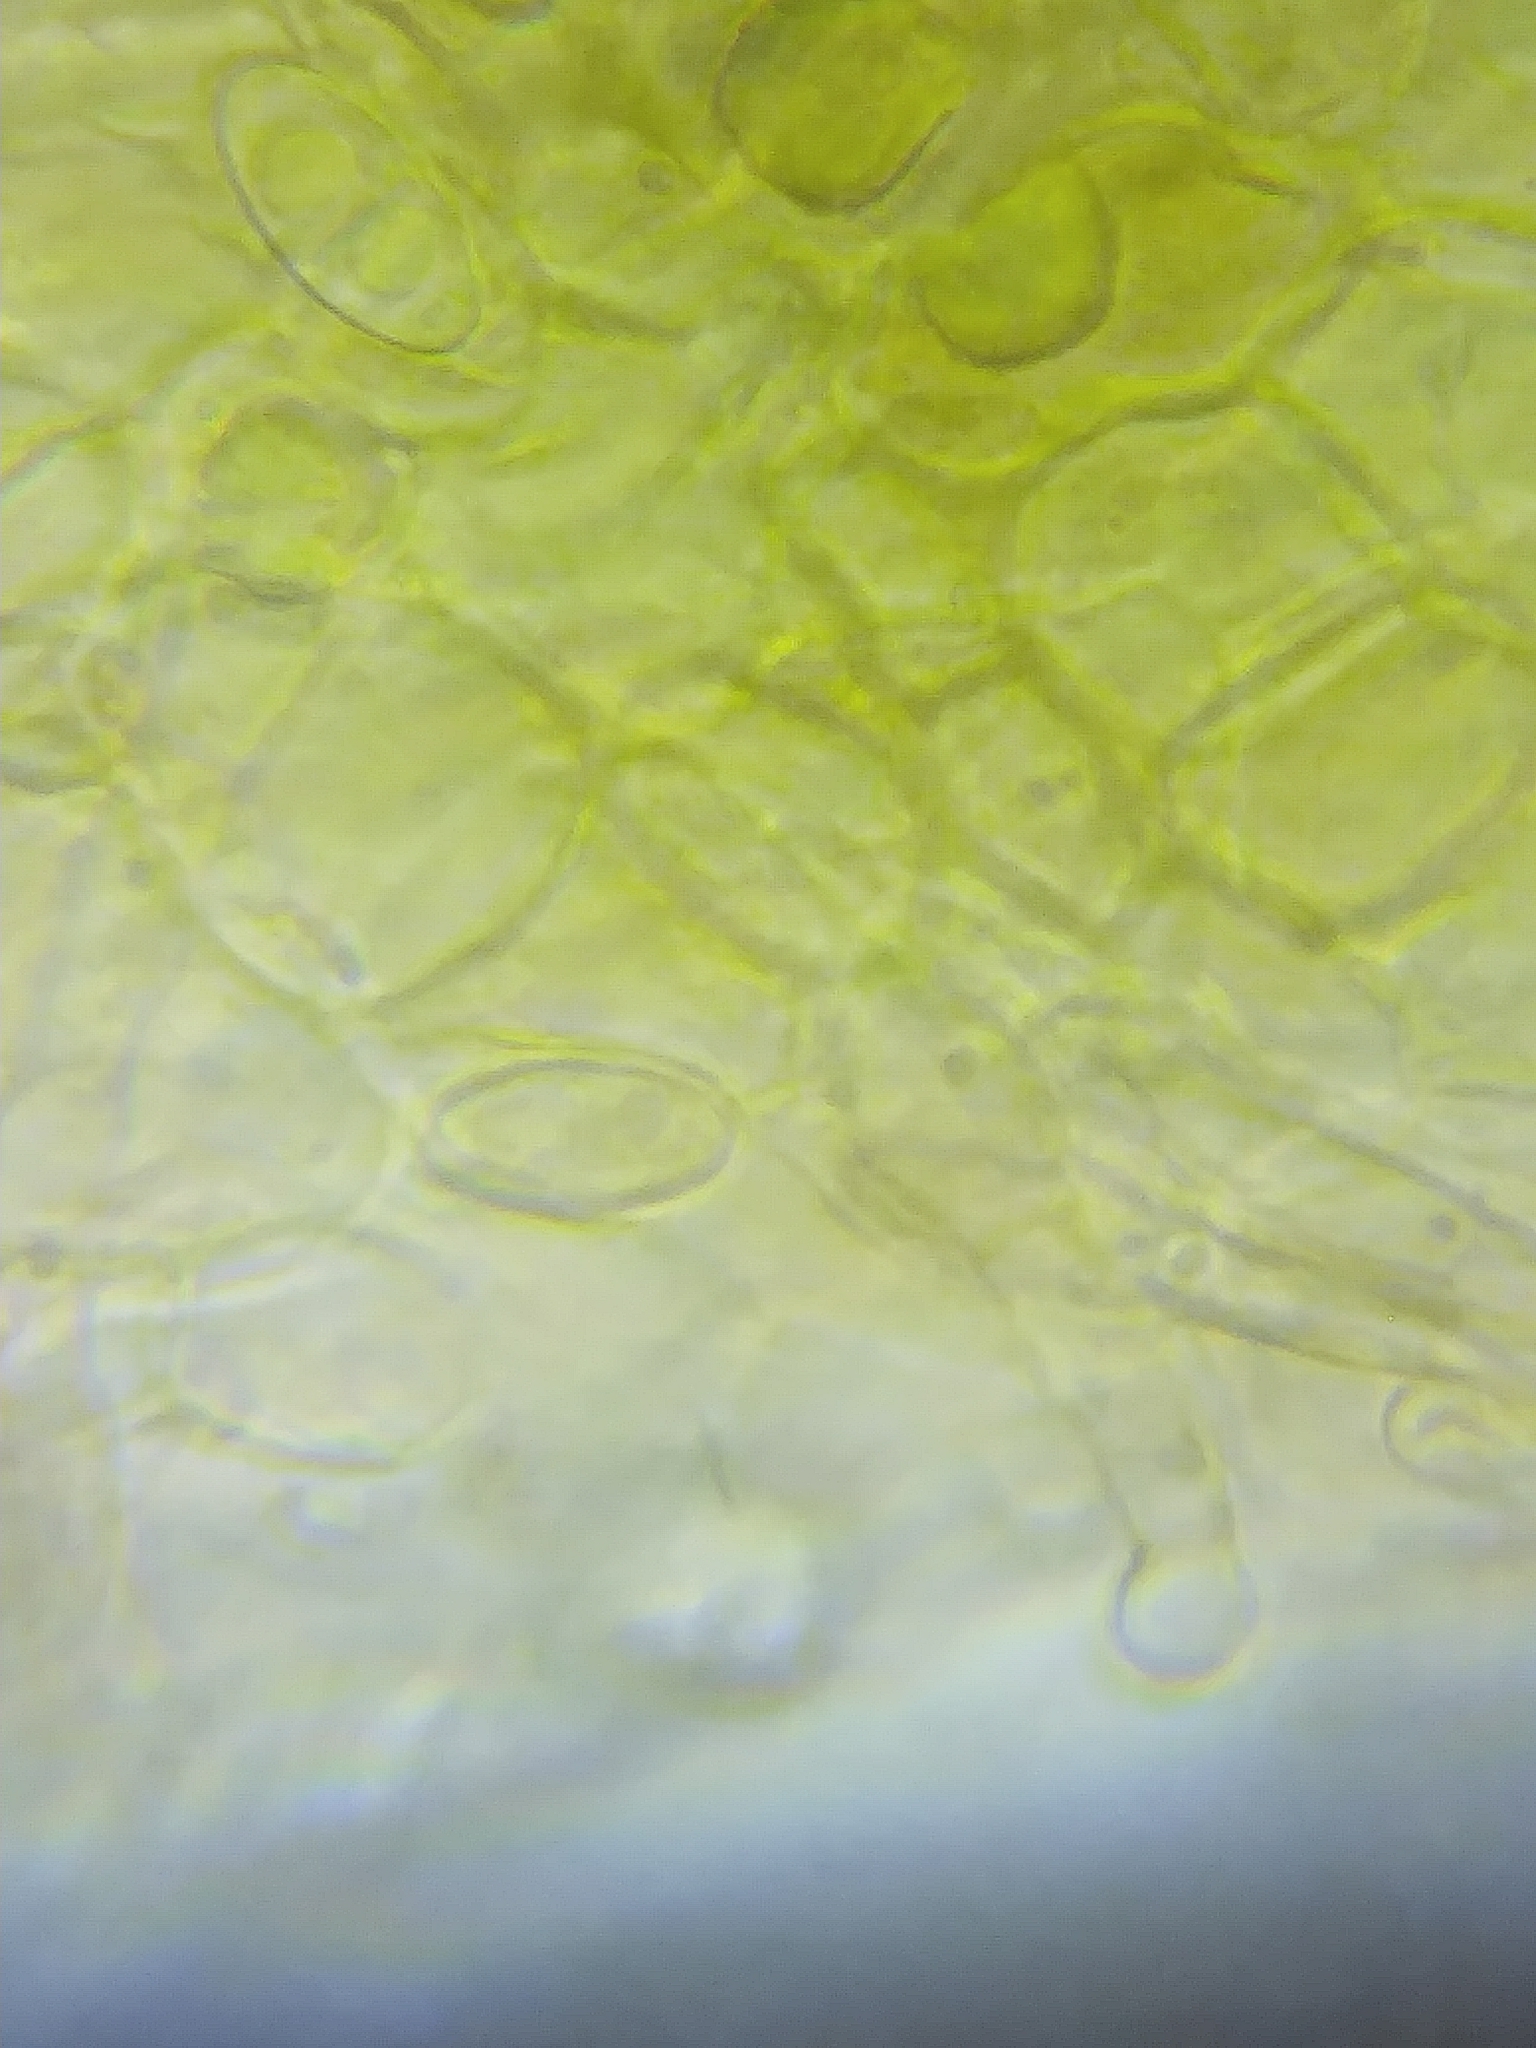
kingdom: Fungi
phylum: Ascomycota
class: Sordariomycetes
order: Hypocreales
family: Nectriaceae
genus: Hydropisphaera
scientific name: Hydropisphaera peziza
